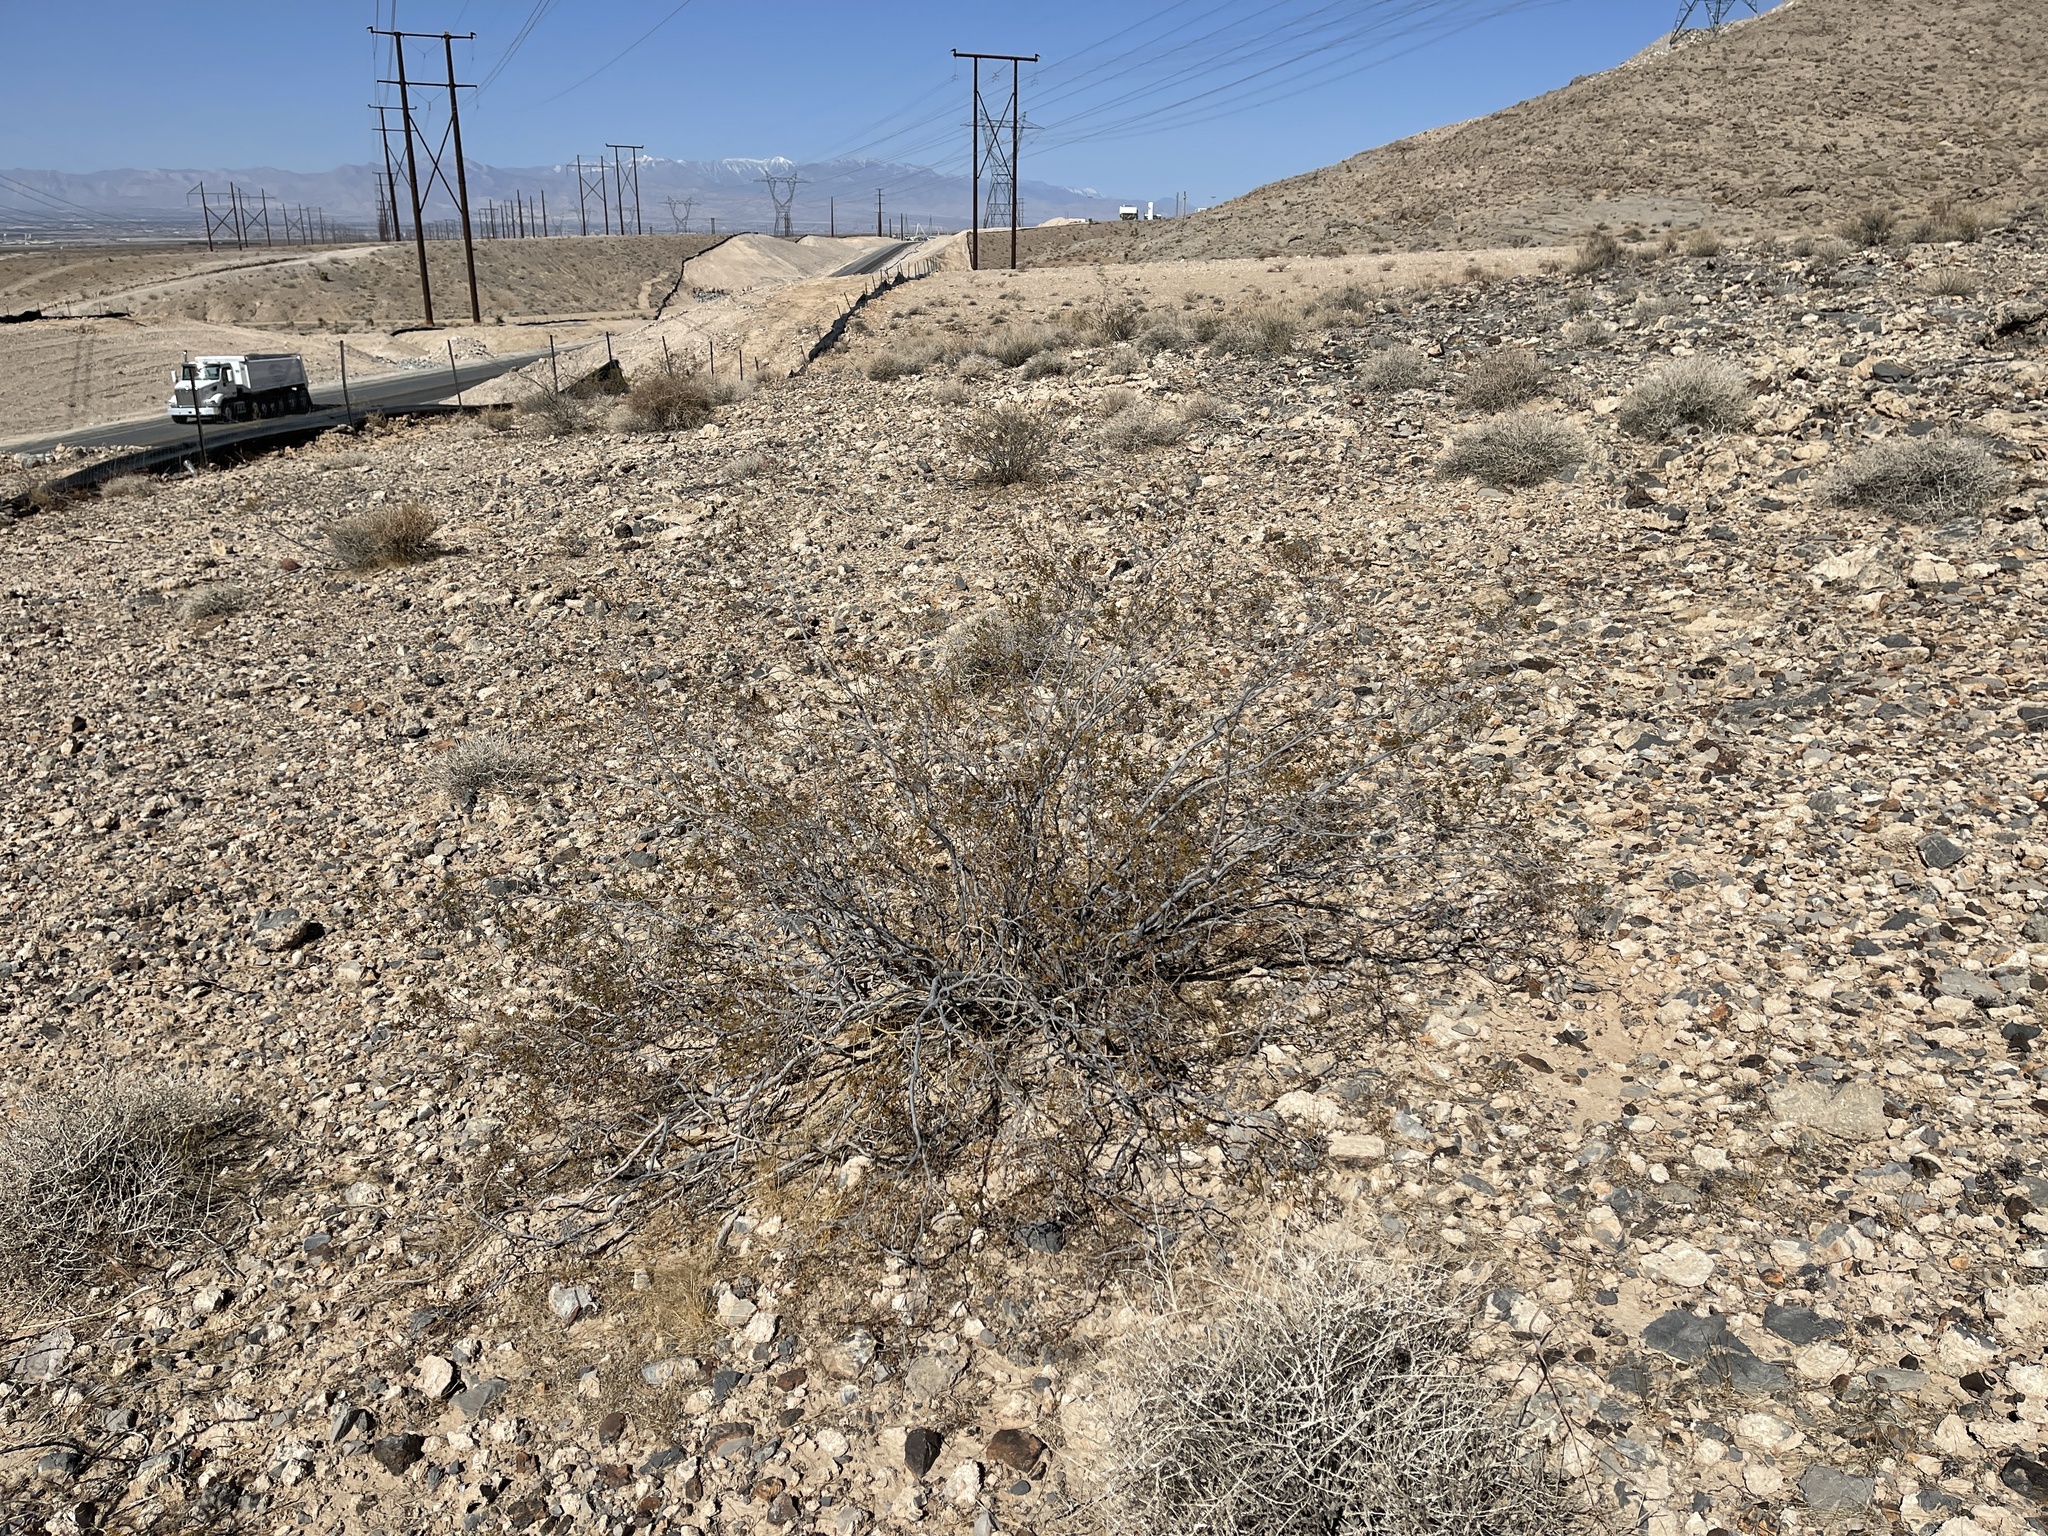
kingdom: Plantae
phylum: Tracheophyta
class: Magnoliopsida
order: Zygophyllales
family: Zygophyllaceae
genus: Larrea
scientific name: Larrea tridentata
